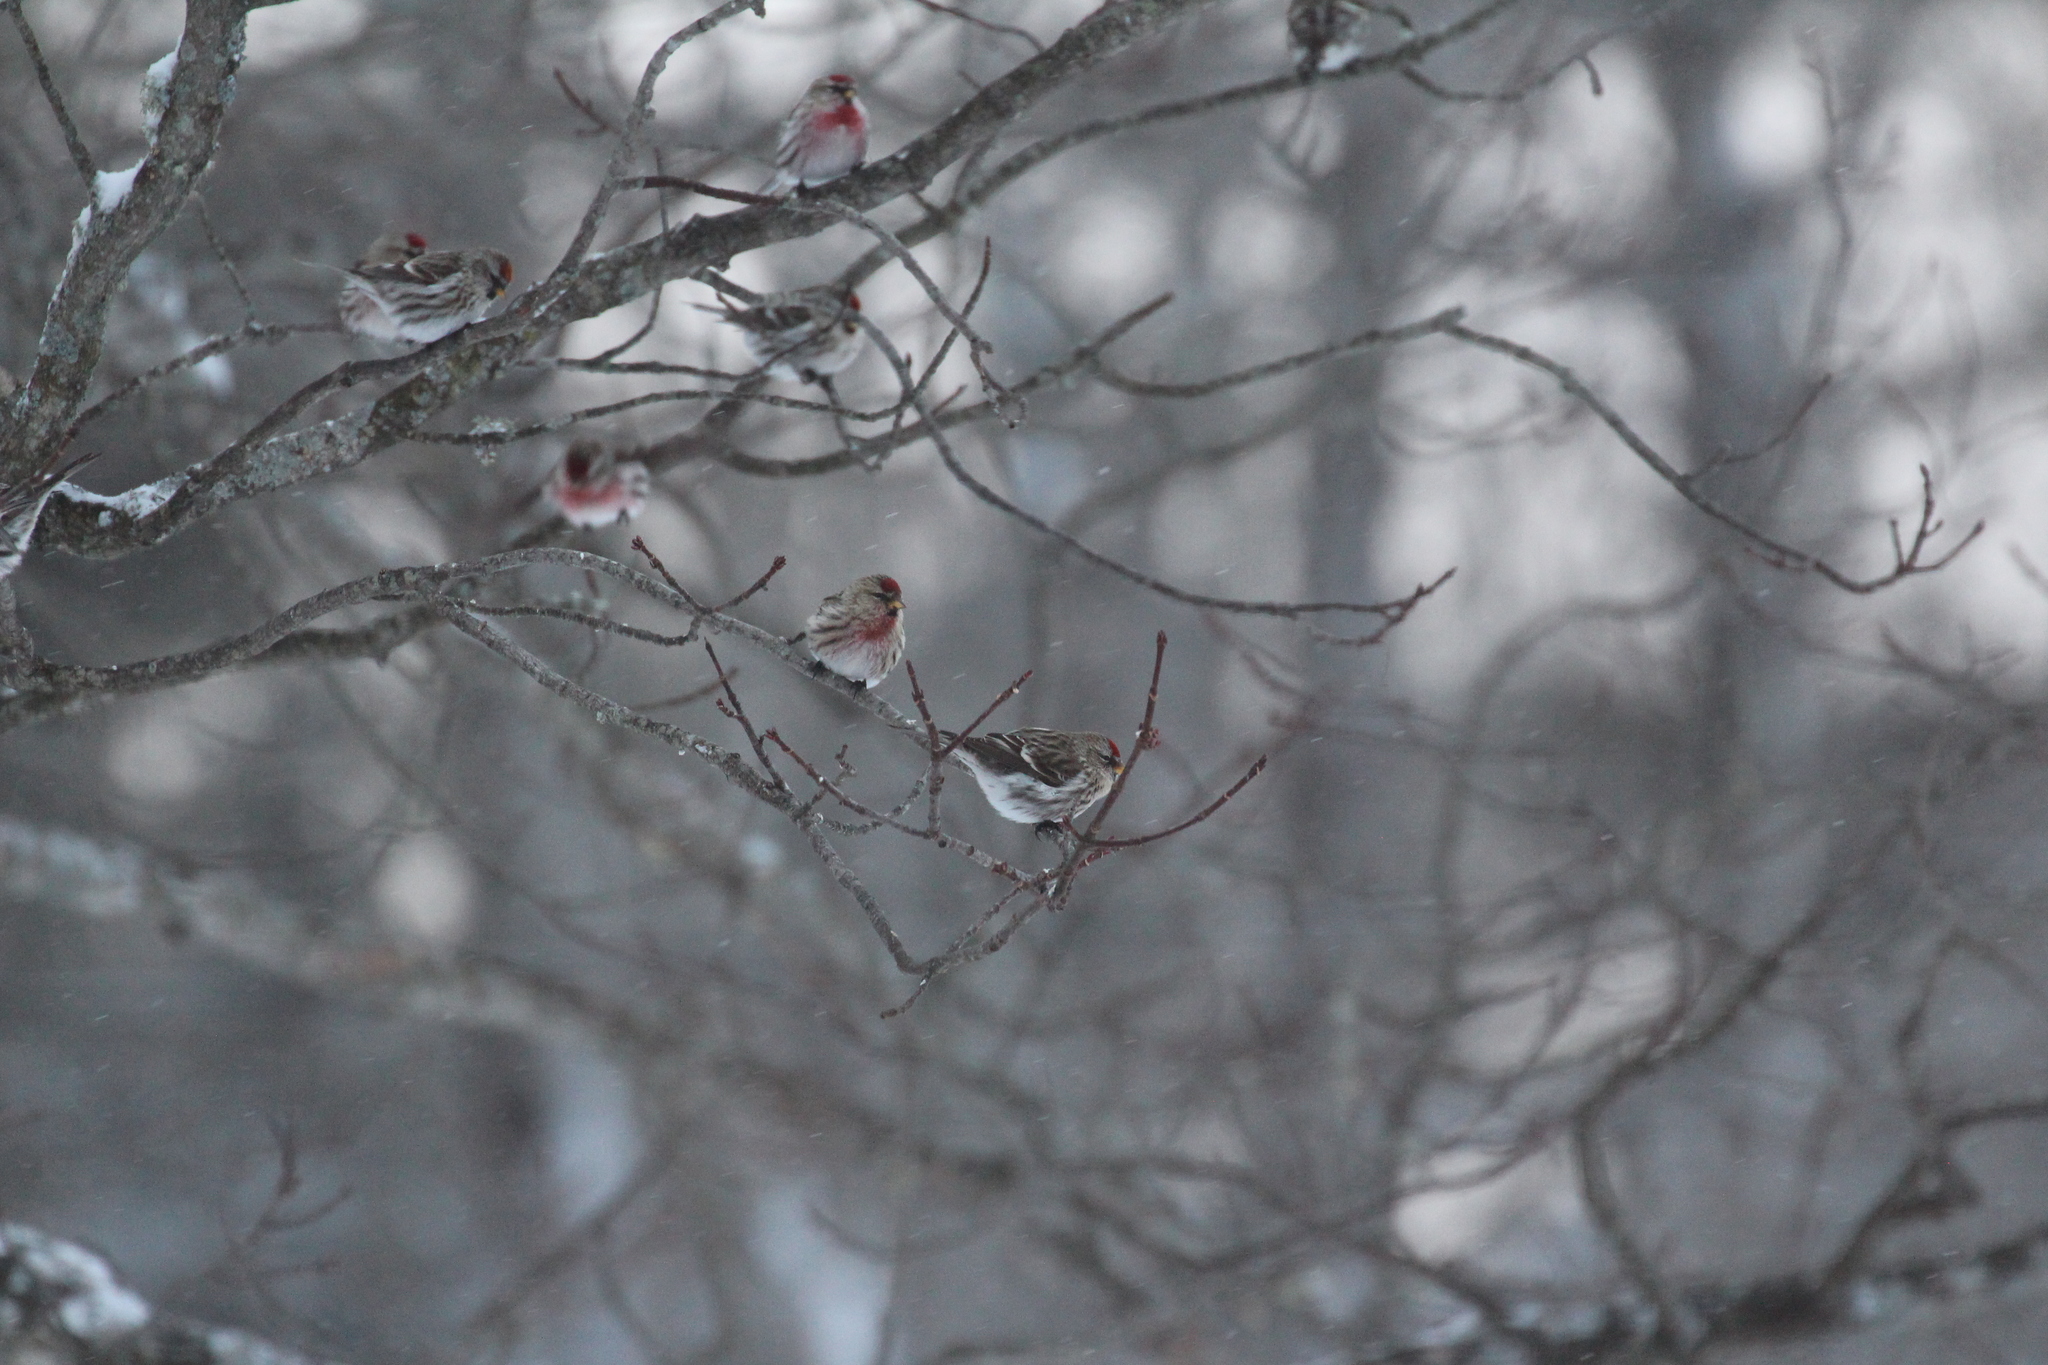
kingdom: Animalia
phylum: Chordata
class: Aves
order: Passeriformes
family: Fringillidae
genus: Acanthis
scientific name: Acanthis flammea
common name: Common redpoll
